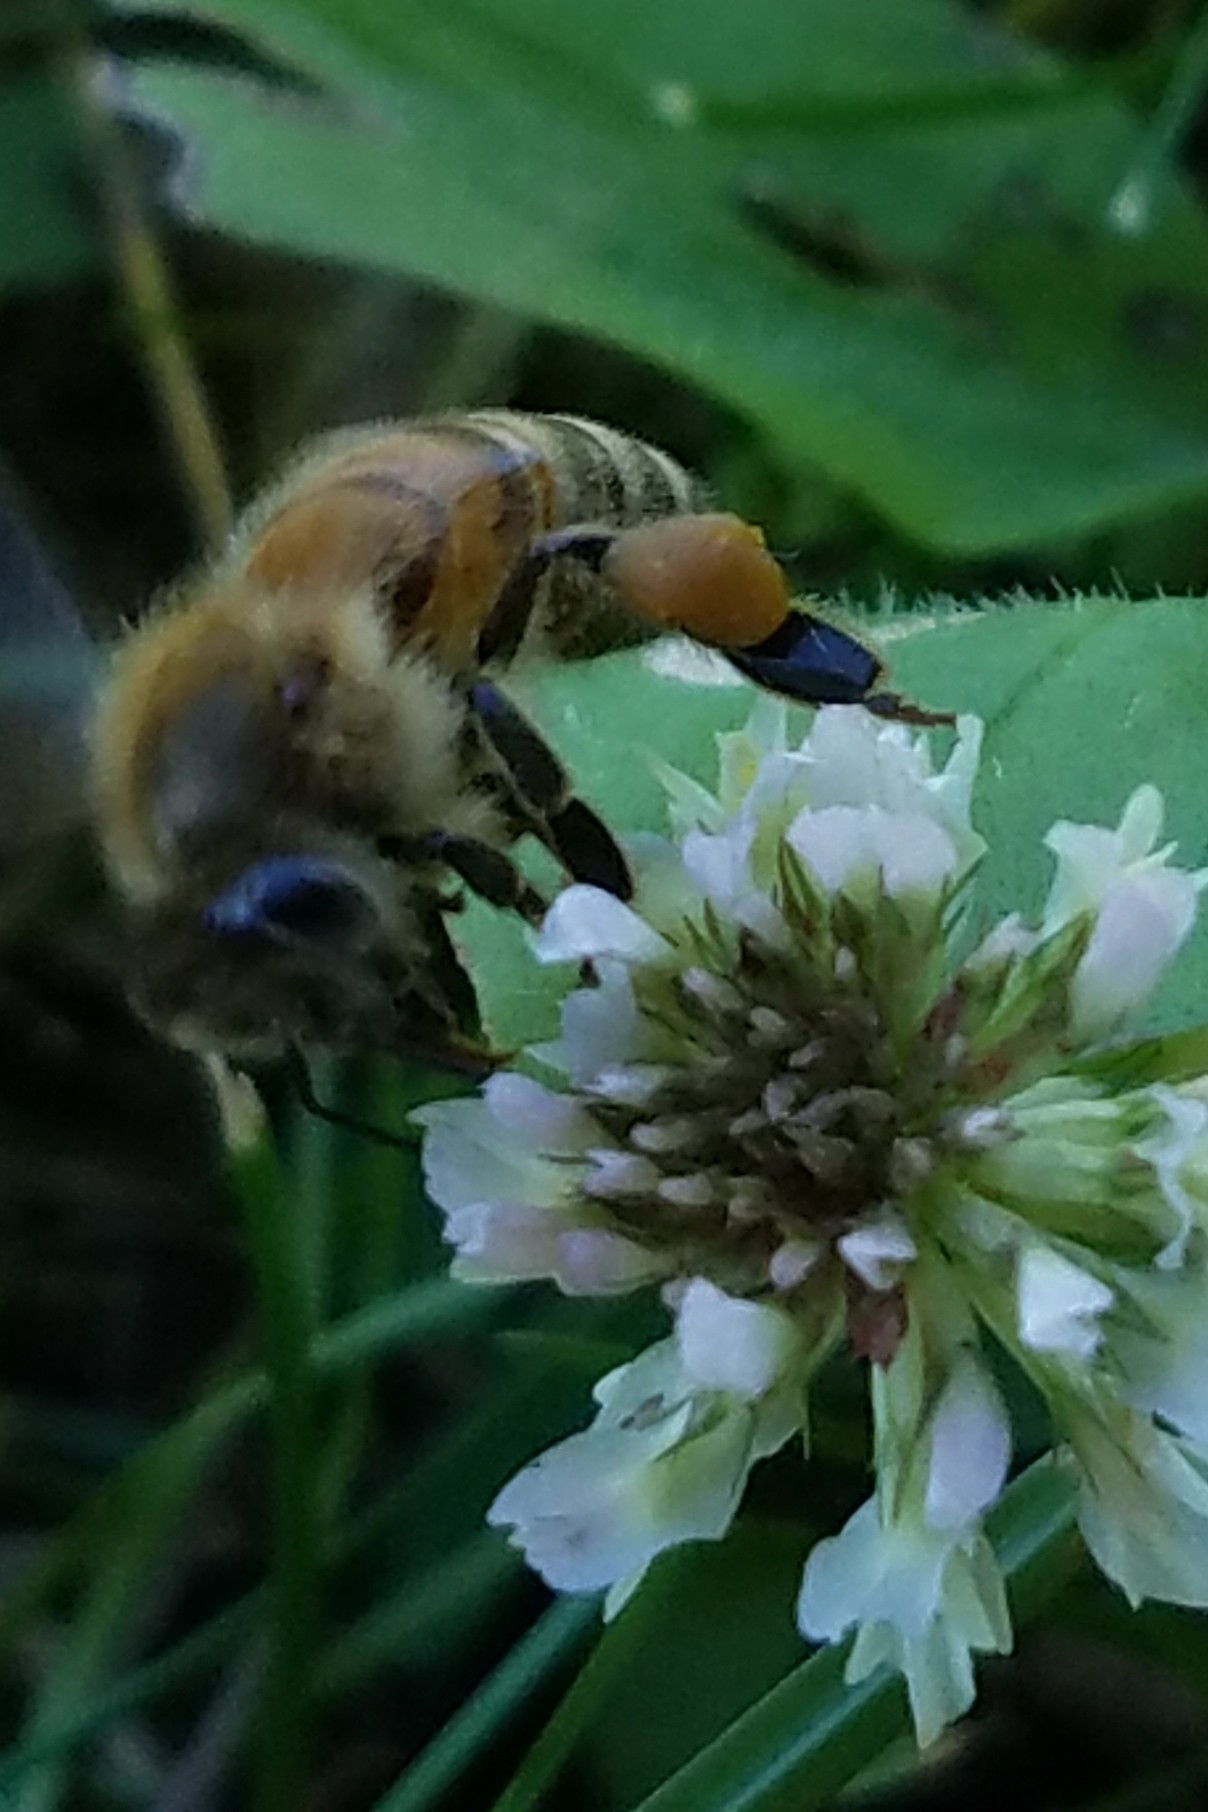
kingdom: Animalia
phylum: Arthropoda
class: Insecta
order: Hymenoptera
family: Apidae
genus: Apis
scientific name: Apis mellifera
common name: Honey bee
